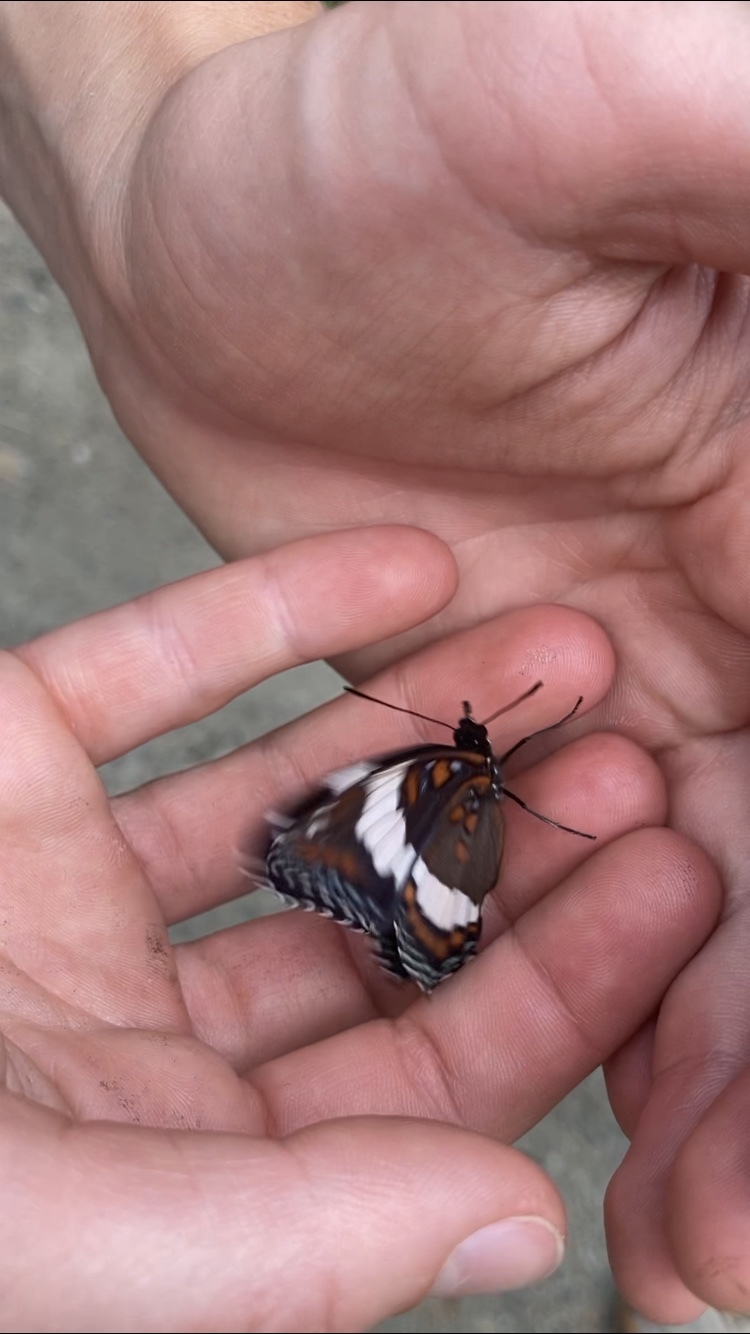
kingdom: Animalia
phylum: Arthropoda
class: Insecta
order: Lepidoptera
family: Nymphalidae
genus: Limenitis
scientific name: Limenitis arthemis
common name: Red-spotted admiral
